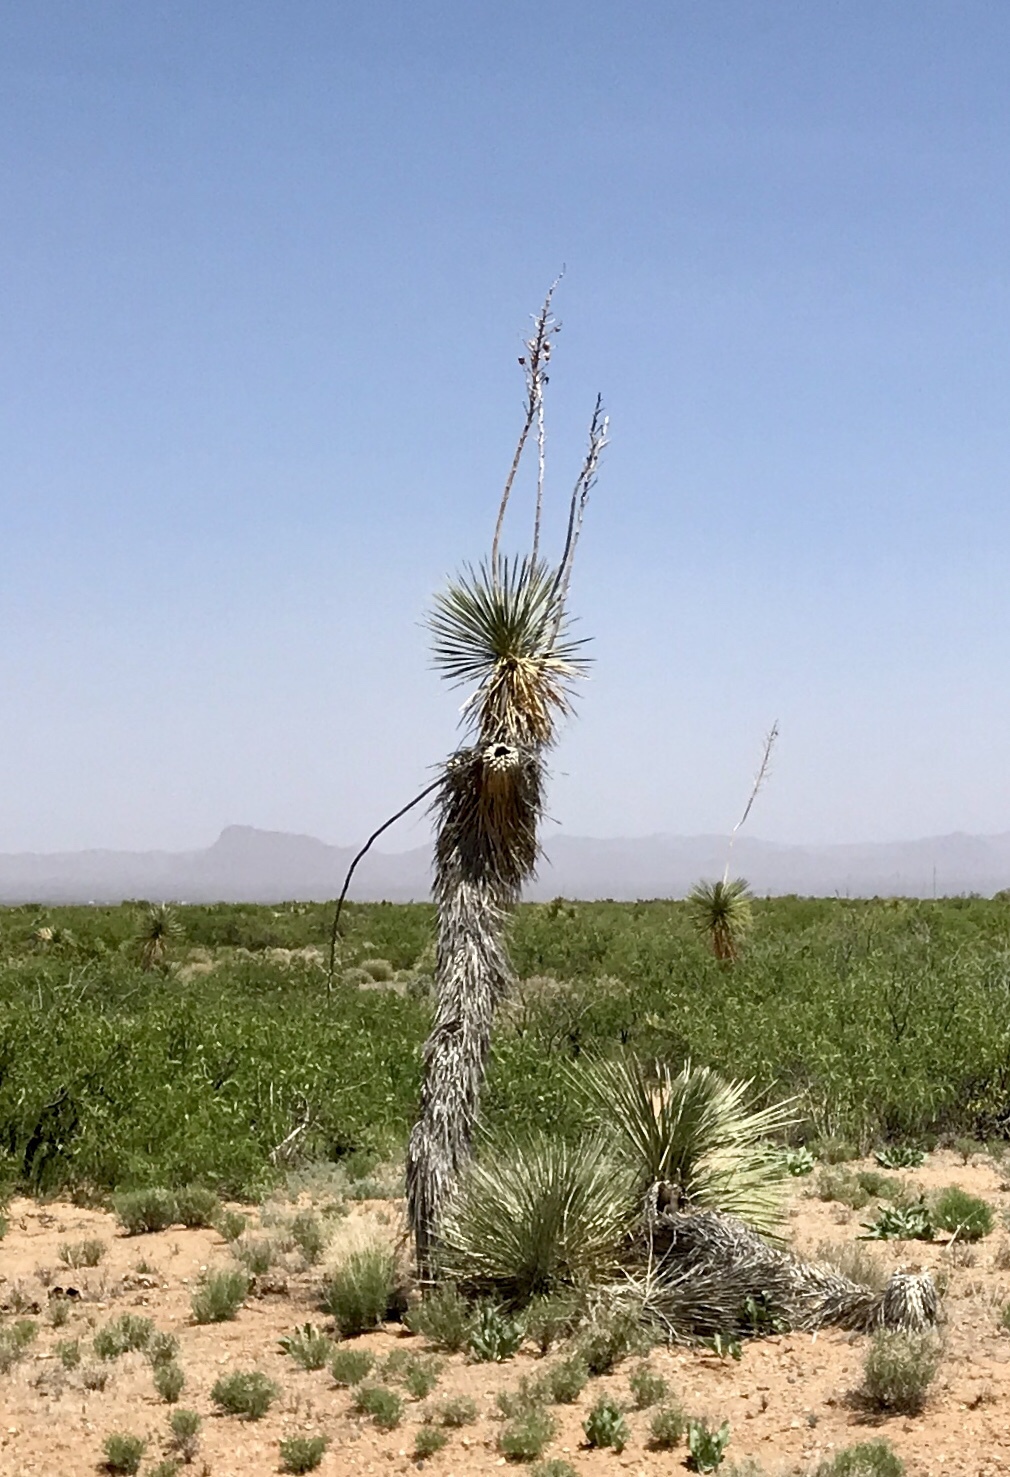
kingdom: Plantae
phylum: Tracheophyta
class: Liliopsida
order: Asparagales
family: Asparagaceae
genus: Yucca
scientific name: Yucca elata
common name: Palmella
